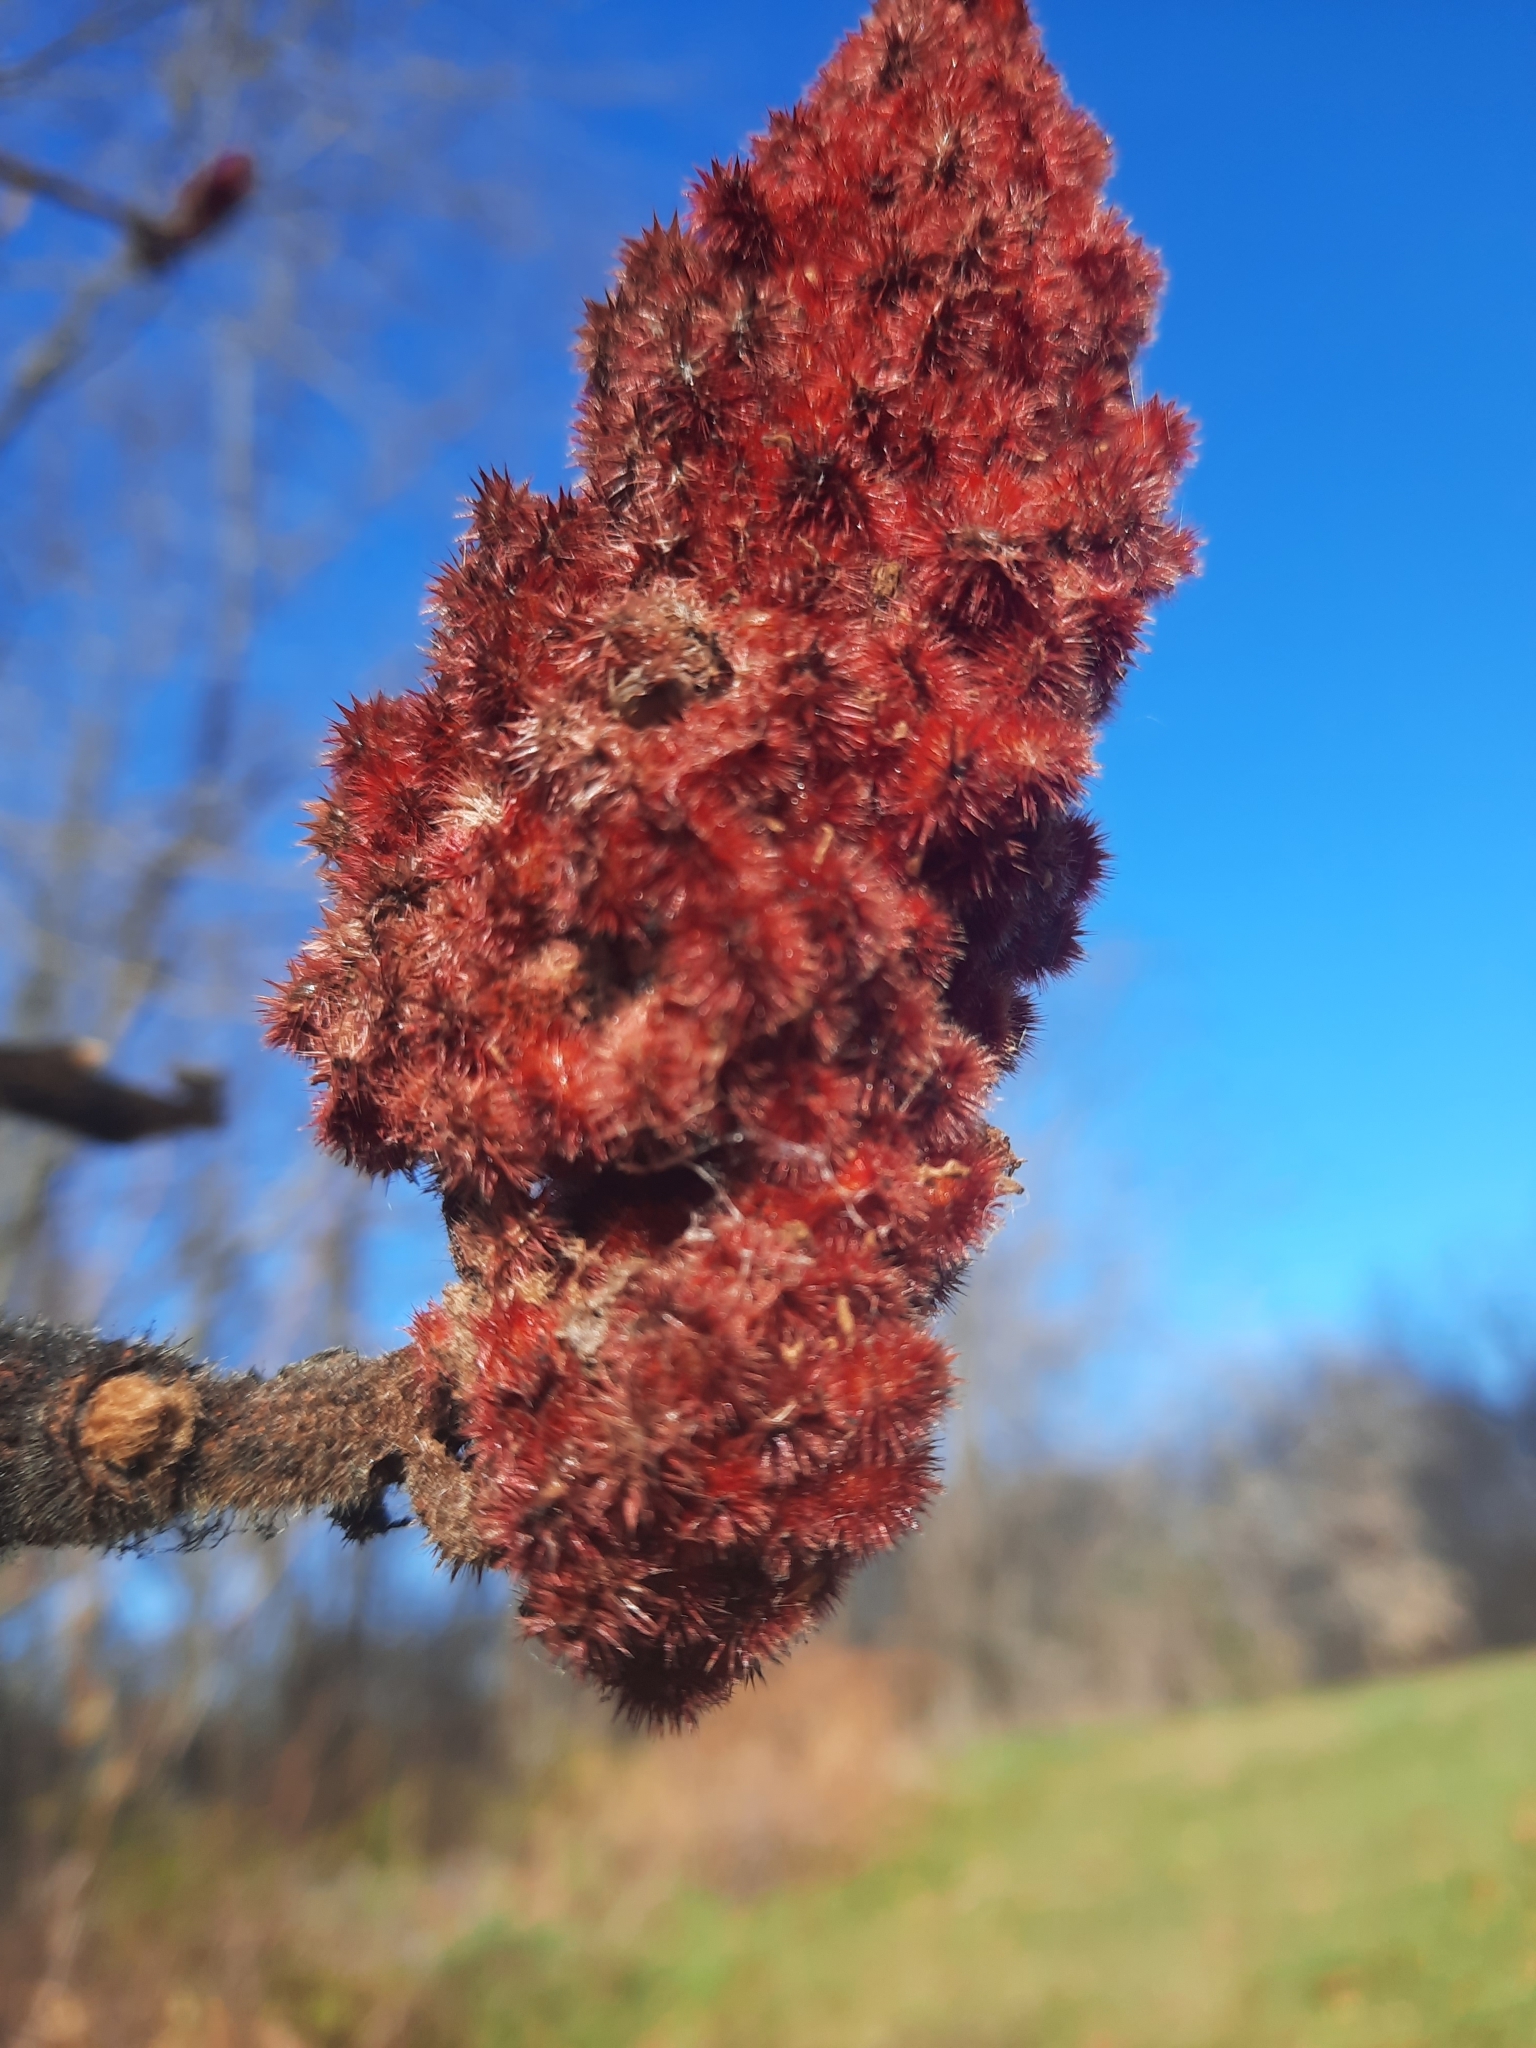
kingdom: Plantae
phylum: Tracheophyta
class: Magnoliopsida
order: Sapindales
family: Anacardiaceae
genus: Rhus
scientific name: Rhus typhina
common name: Staghorn sumac
